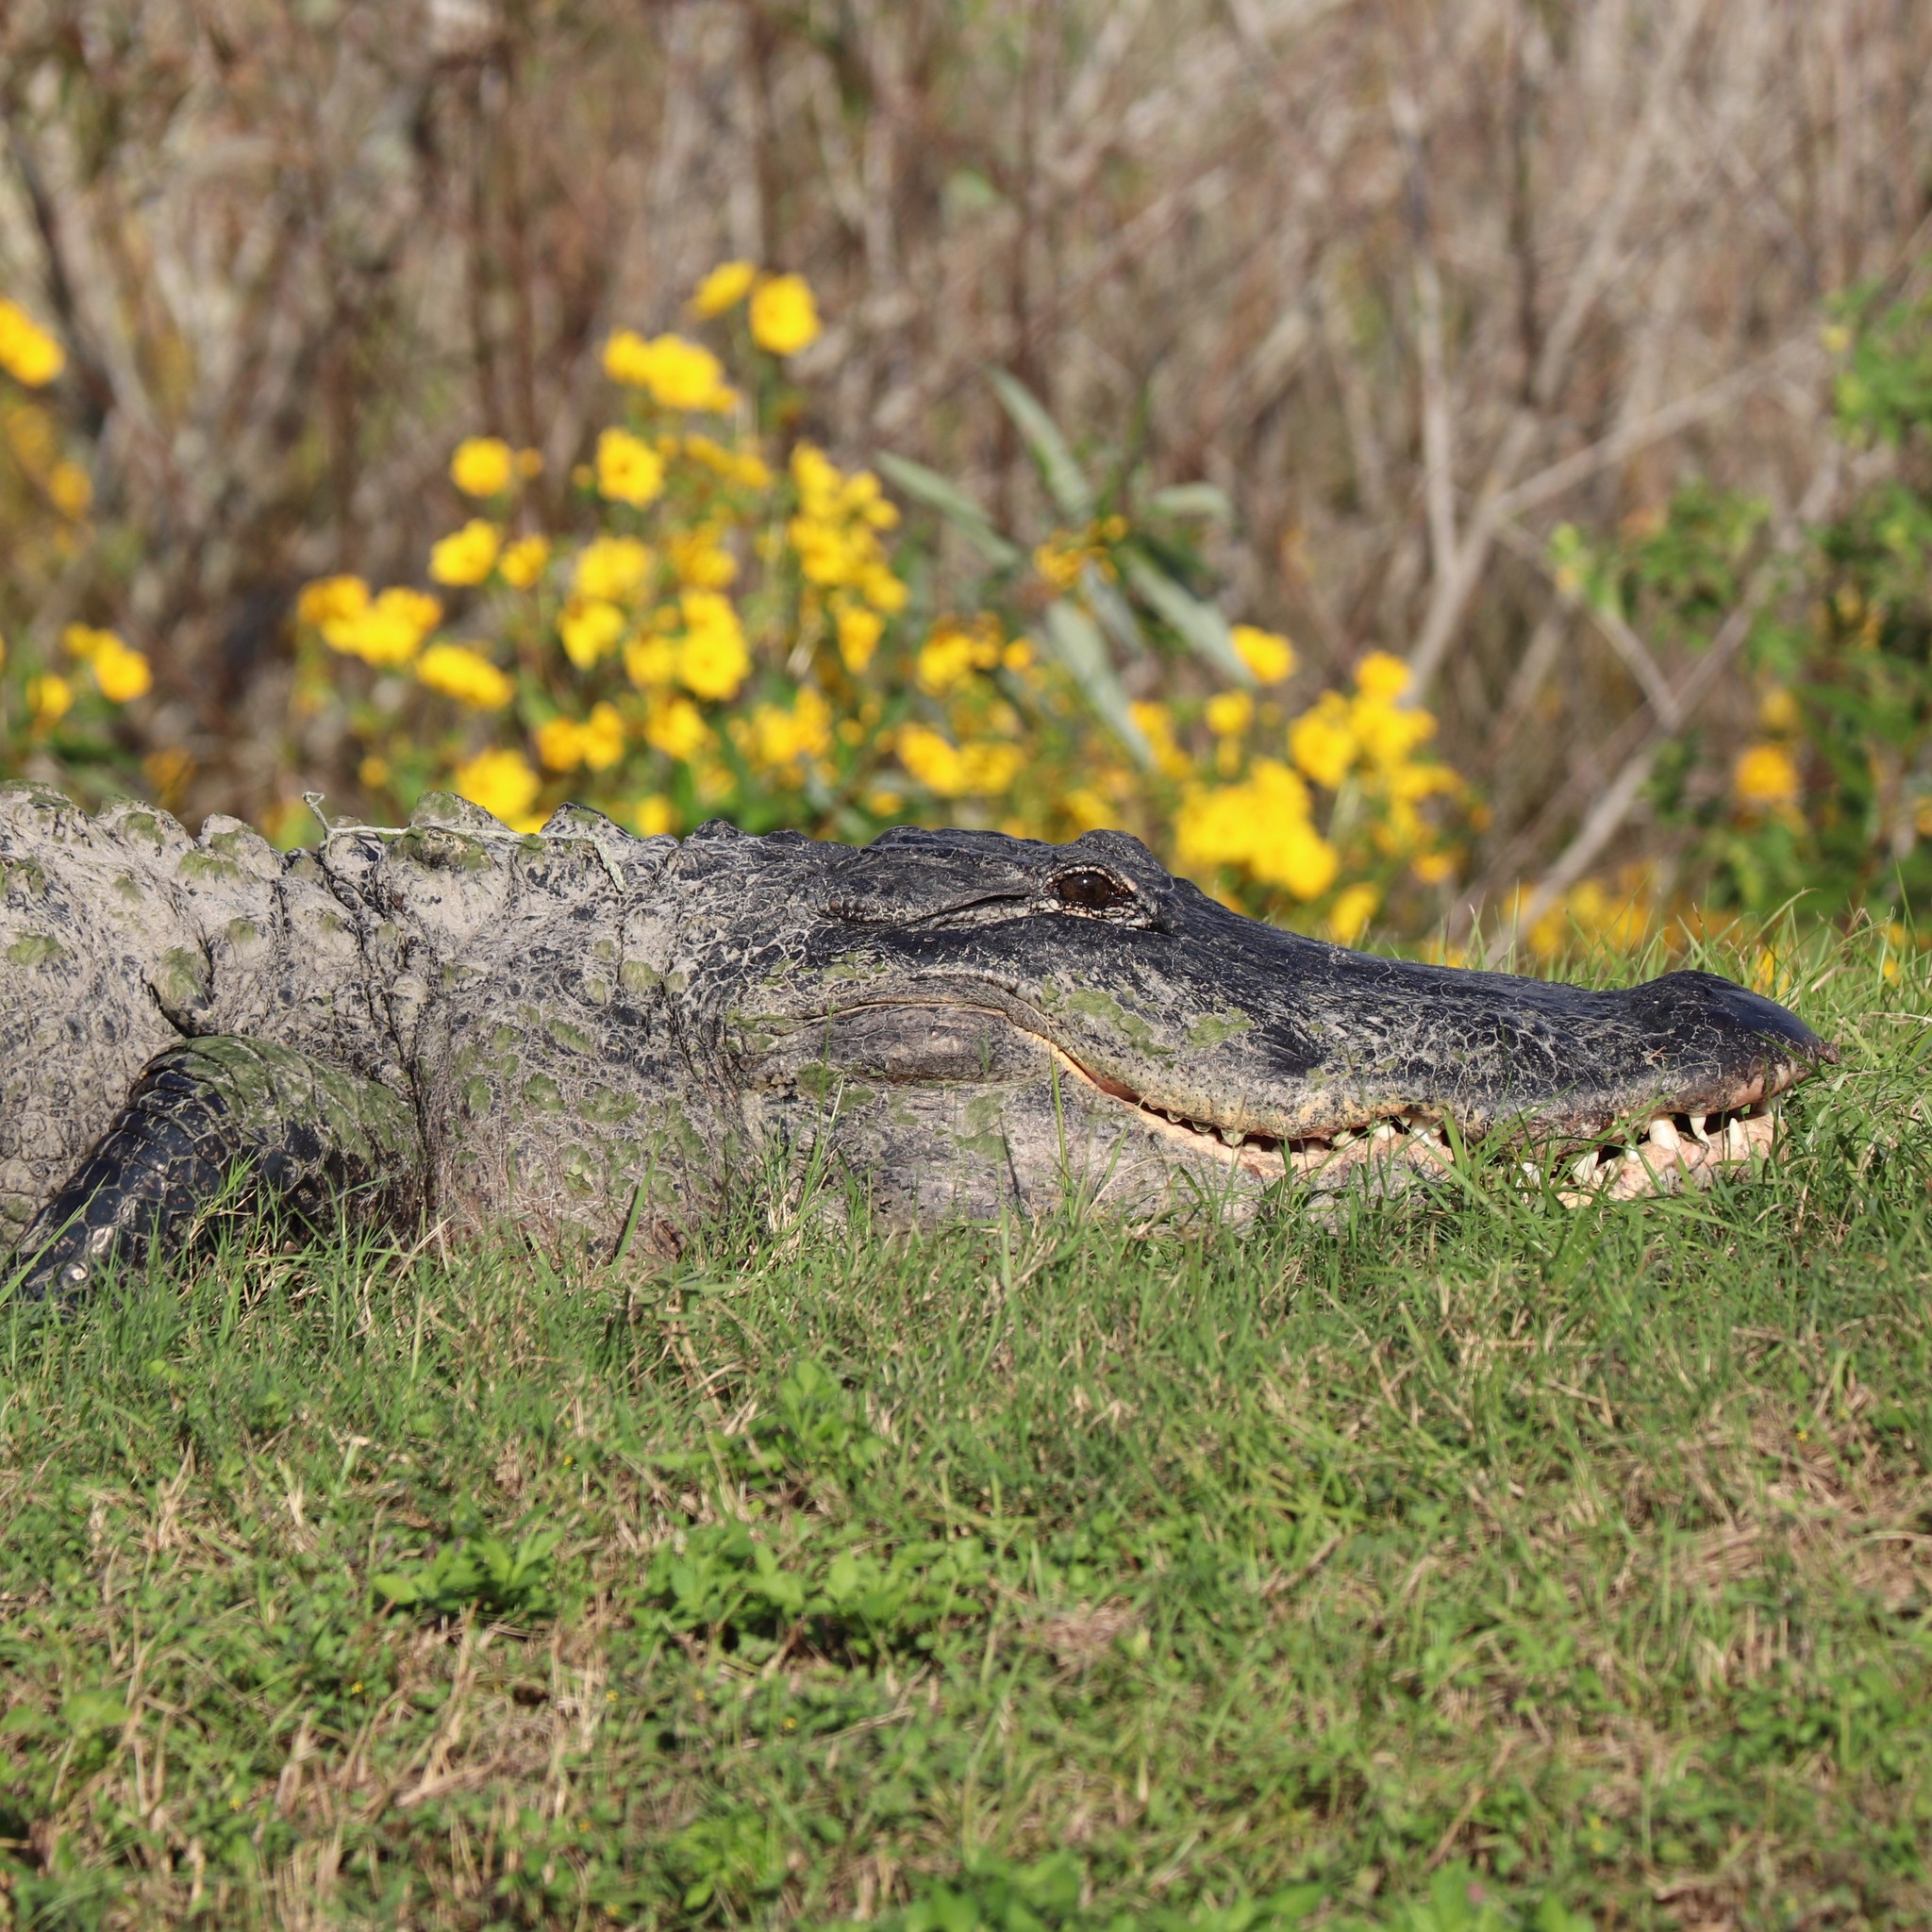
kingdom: Animalia
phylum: Chordata
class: Crocodylia
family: Alligatoridae
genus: Alligator
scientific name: Alligator mississippiensis
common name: American alligator
